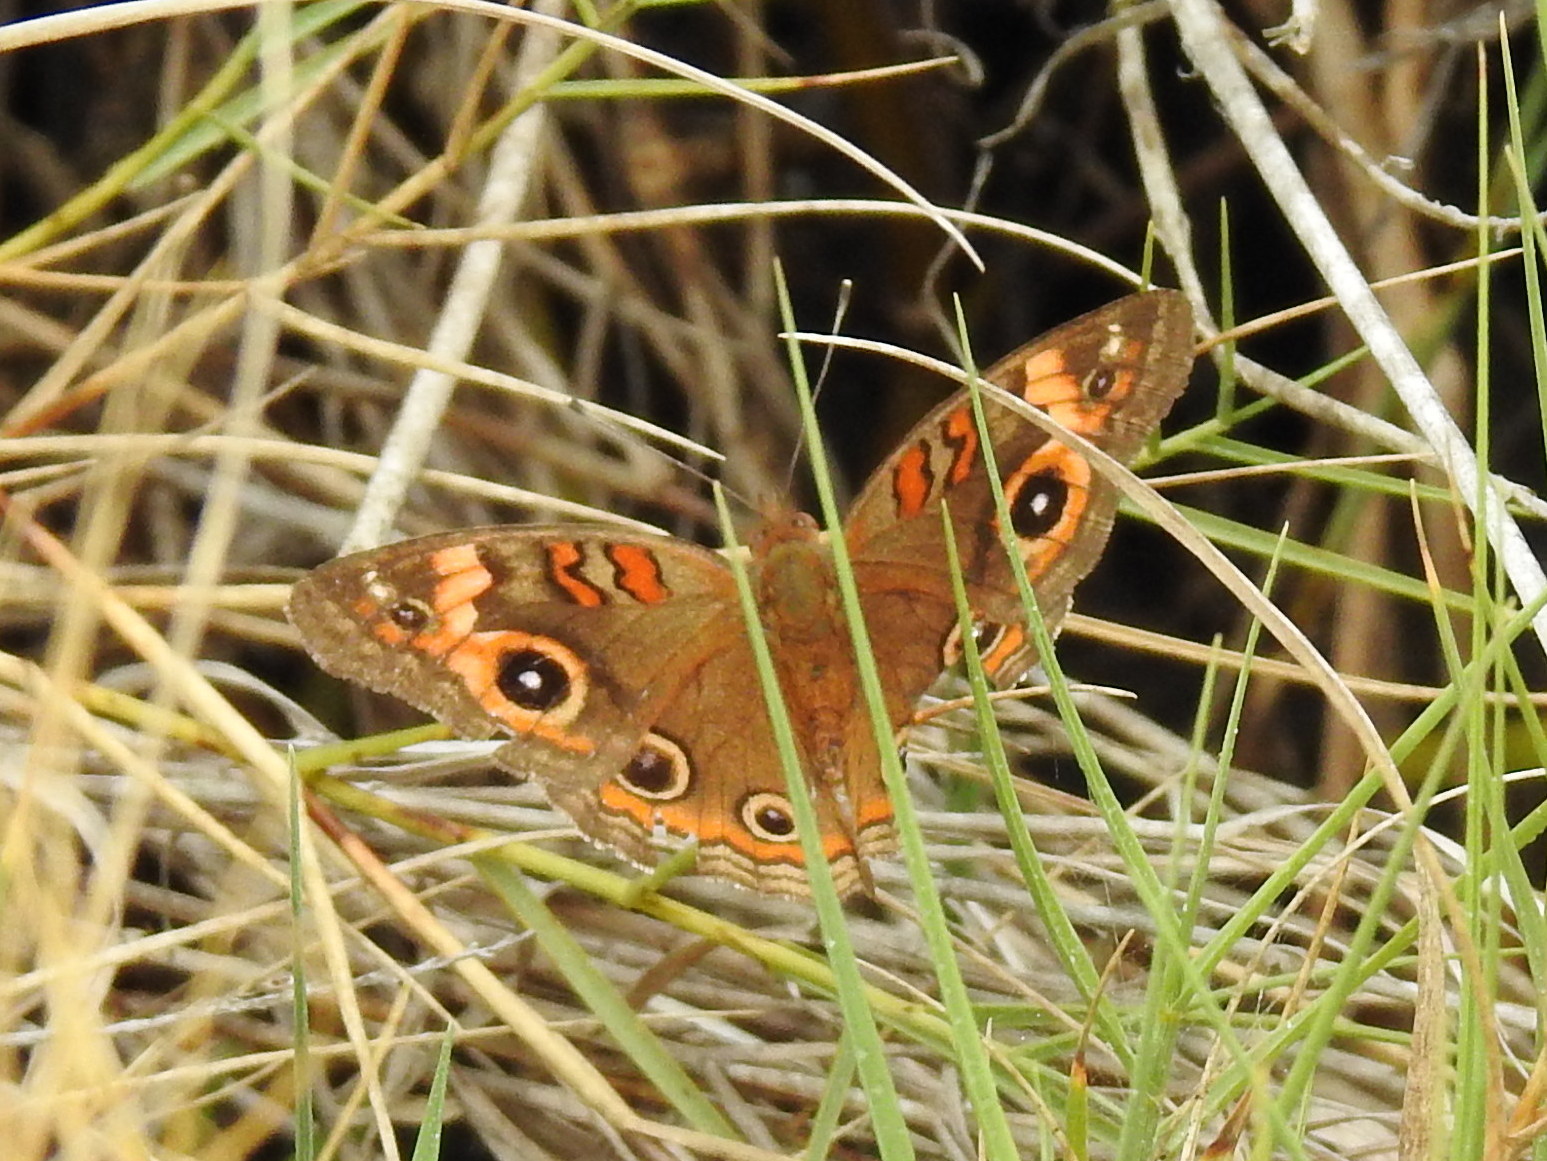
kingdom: Animalia
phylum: Arthropoda
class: Insecta
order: Lepidoptera
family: Nymphalidae
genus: Junonia
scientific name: Junonia neildi
